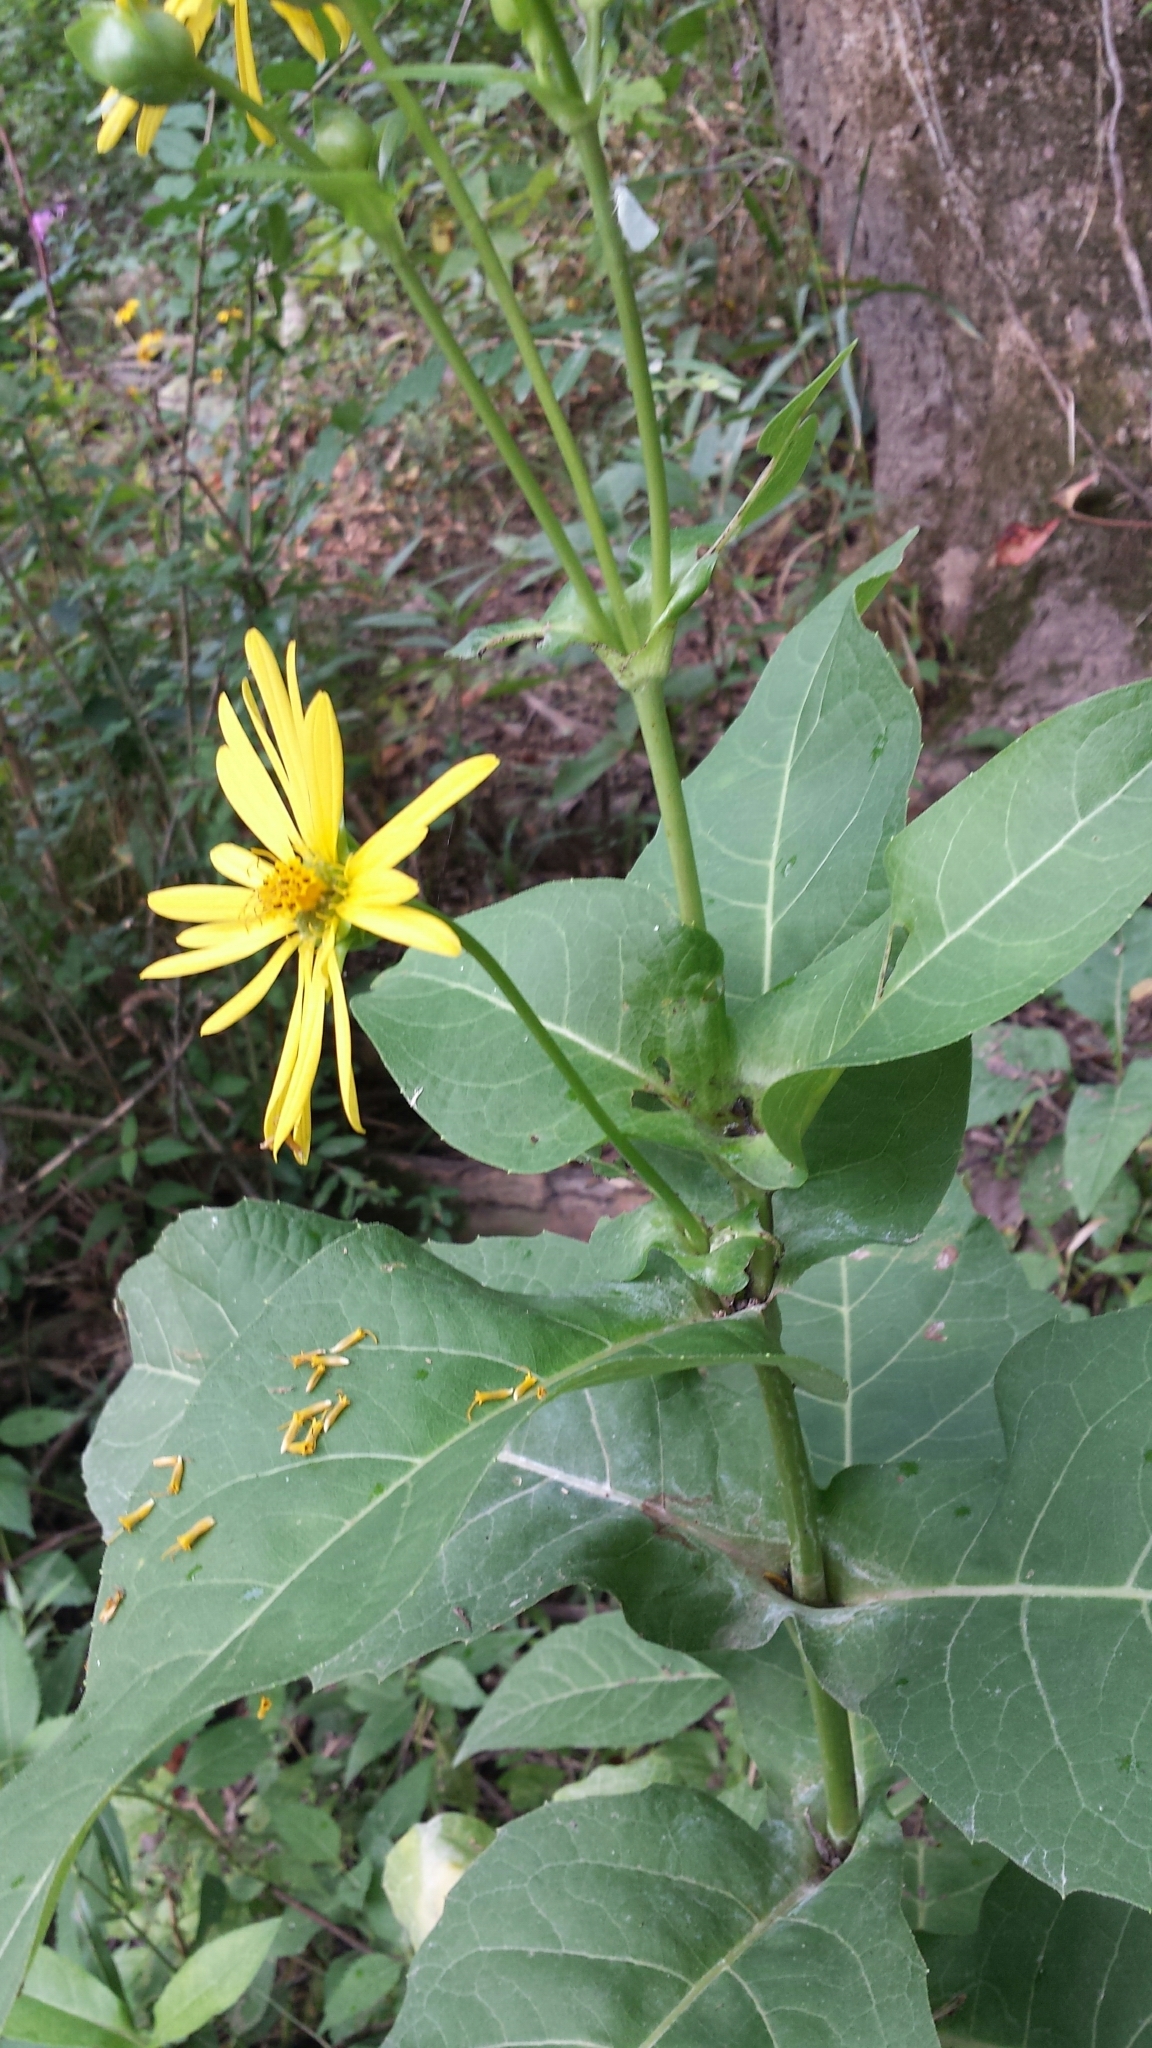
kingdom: Plantae
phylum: Tracheophyta
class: Magnoliopsida
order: Asterales
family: Asteraceae
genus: Silphium
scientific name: Silphium perfoliatum
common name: Cup-plant
